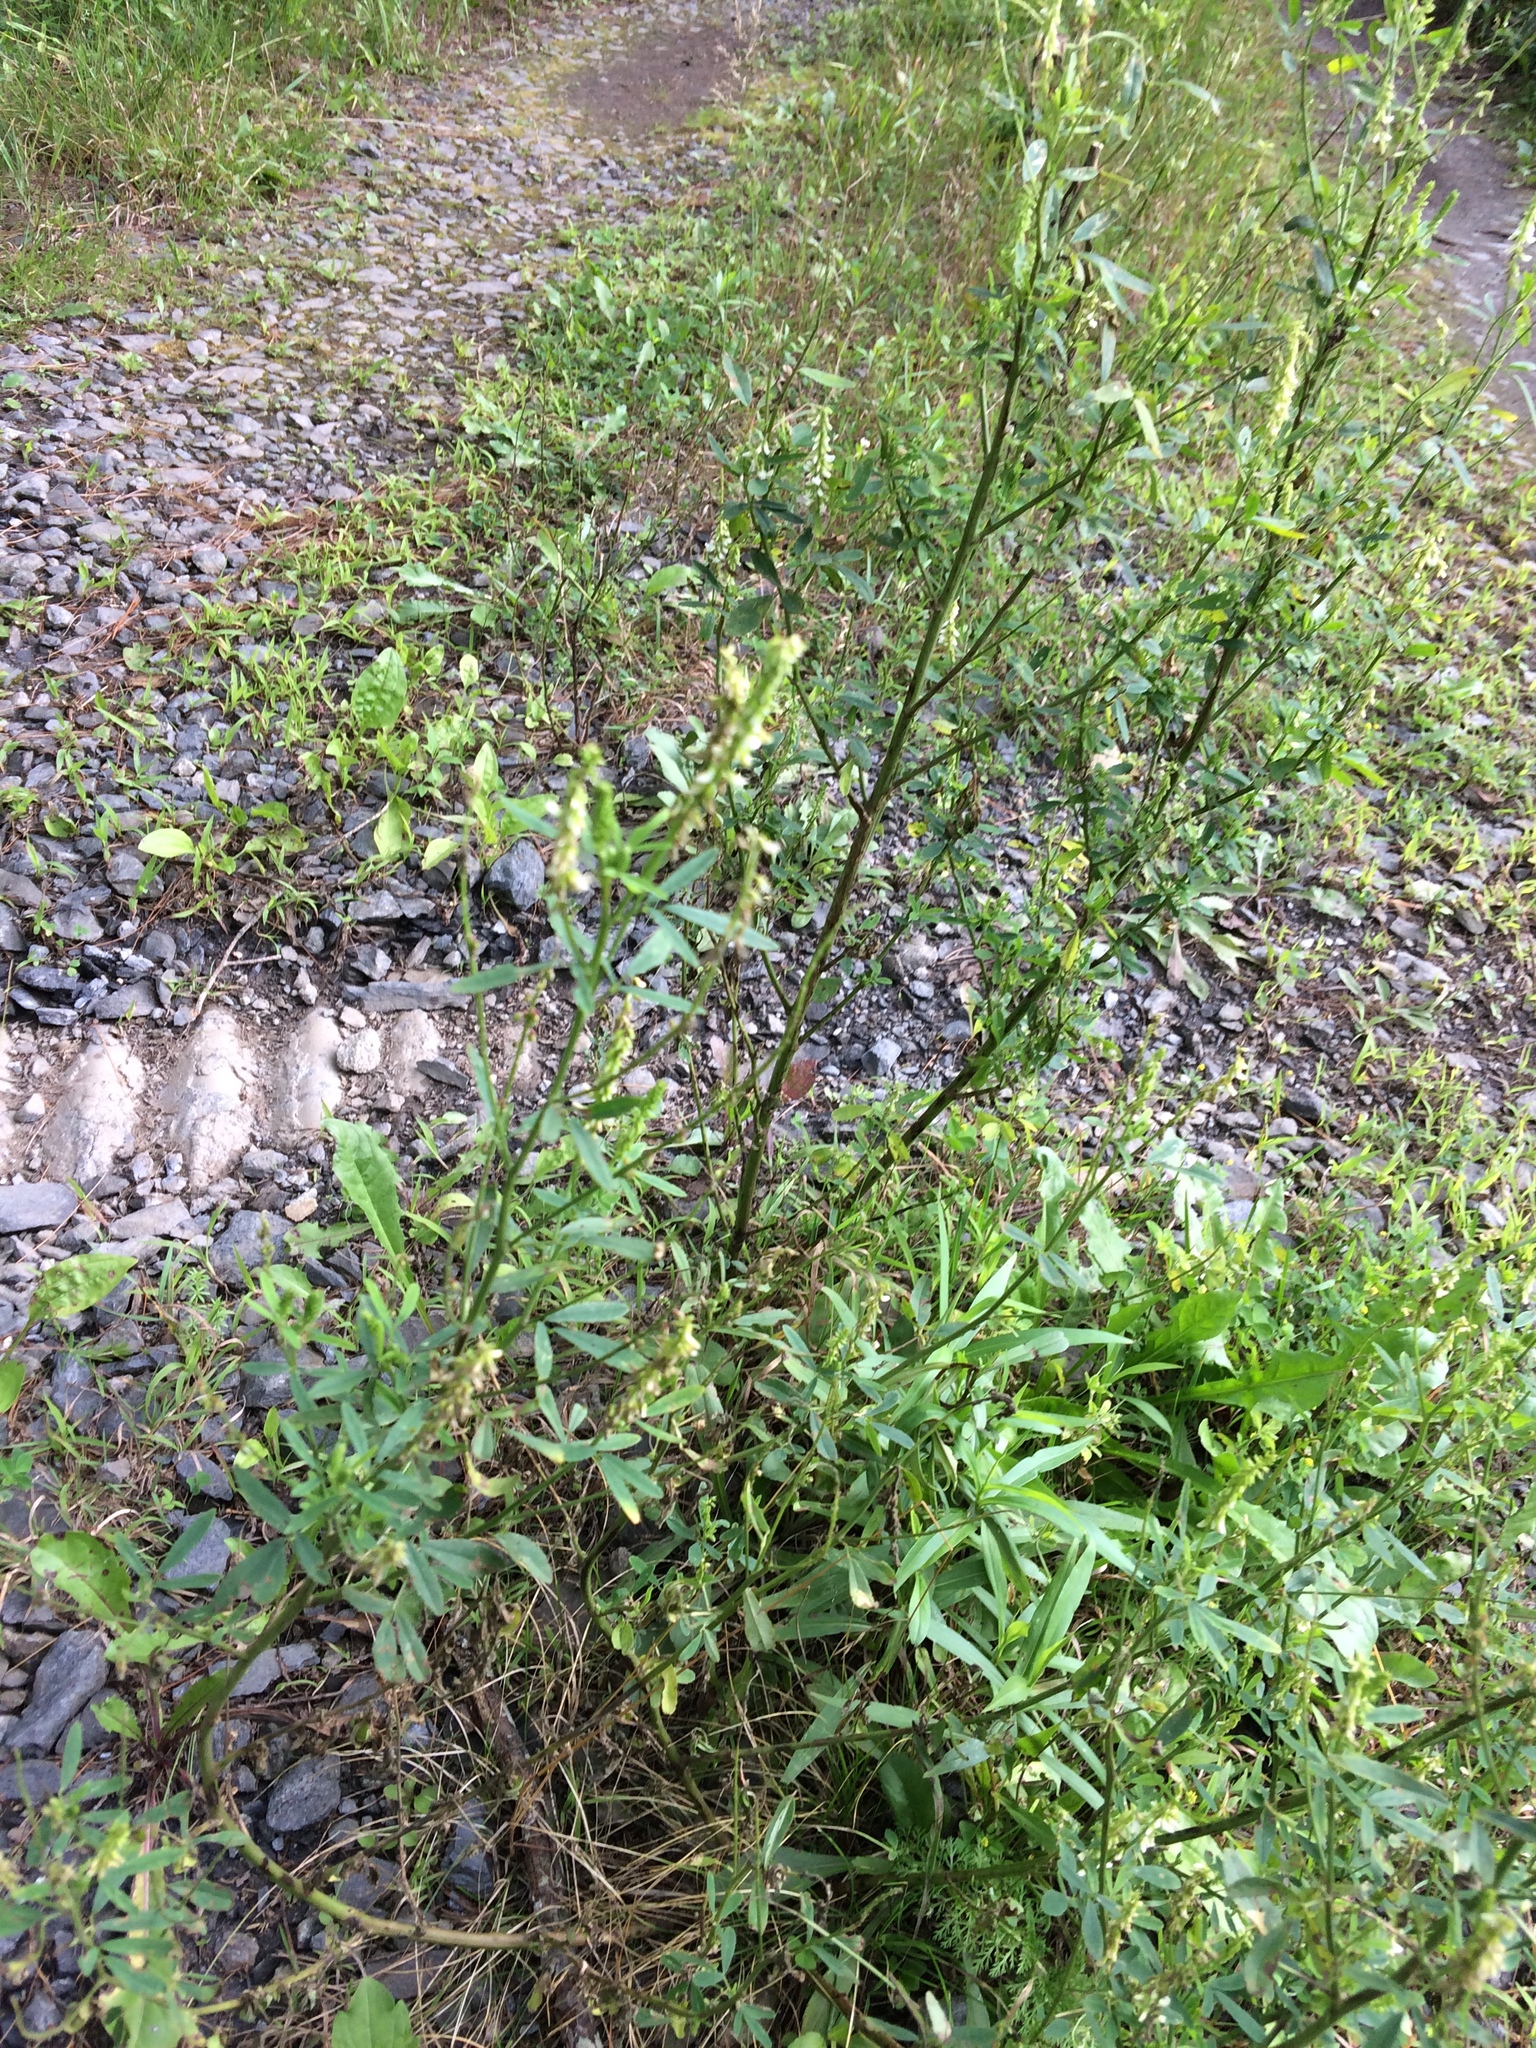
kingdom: Plantae
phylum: Tracheophyta
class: Magnoliopsida
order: Fabales
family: Fabaceae
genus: Melilotus
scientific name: Melilotus albus
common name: White melilot
